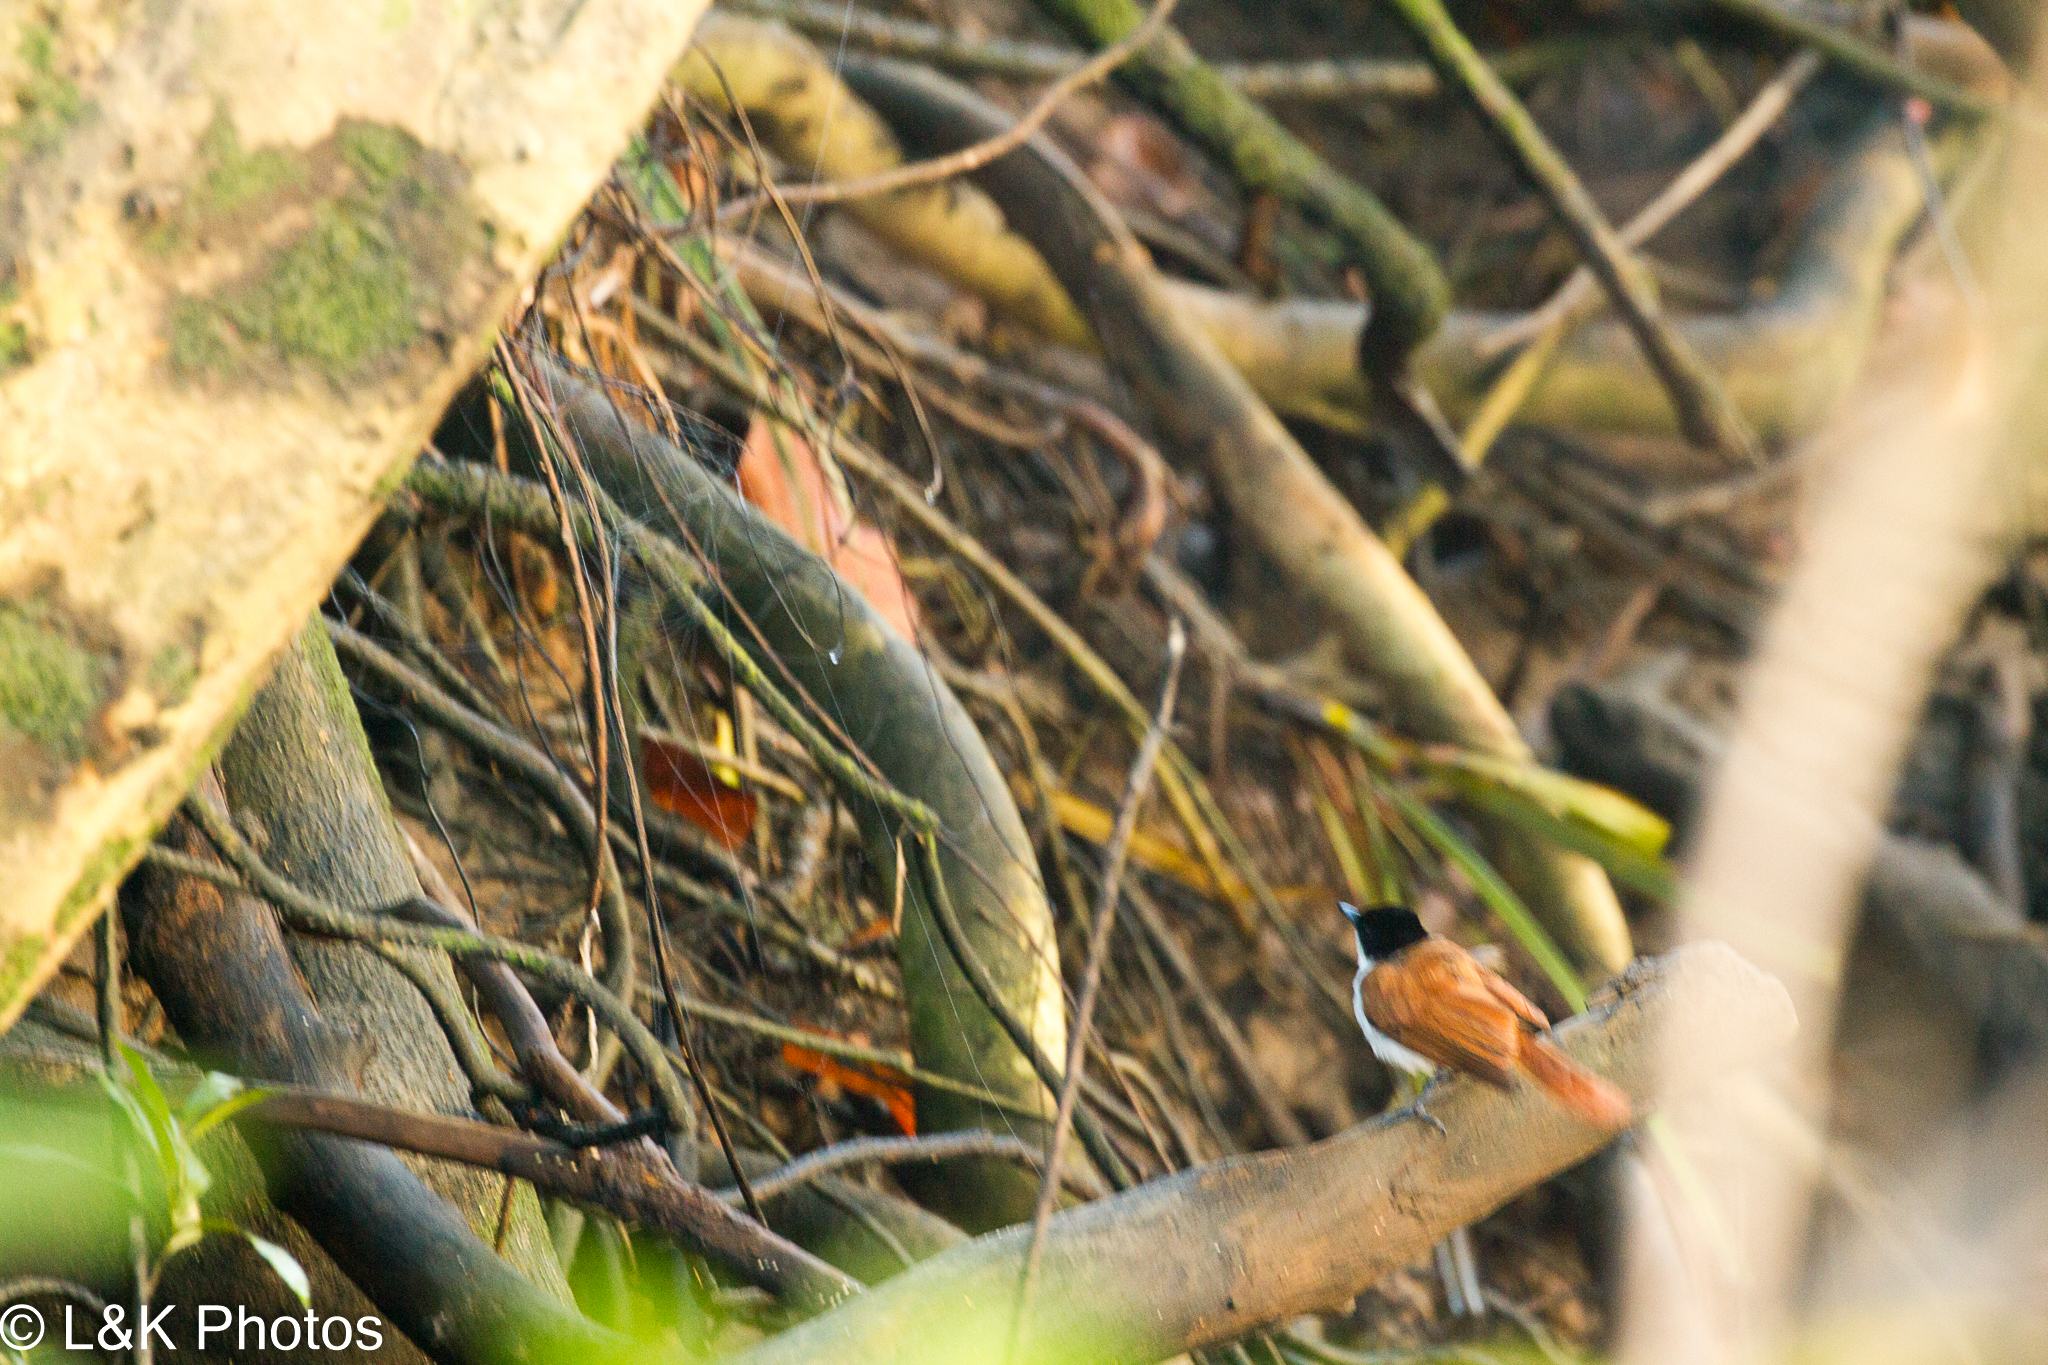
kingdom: Animalia
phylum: Chordata
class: Aves
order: Passeriformes
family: Monarchidae
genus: Myiagra
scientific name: Myiagra alecto
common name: Shining flycatcher
